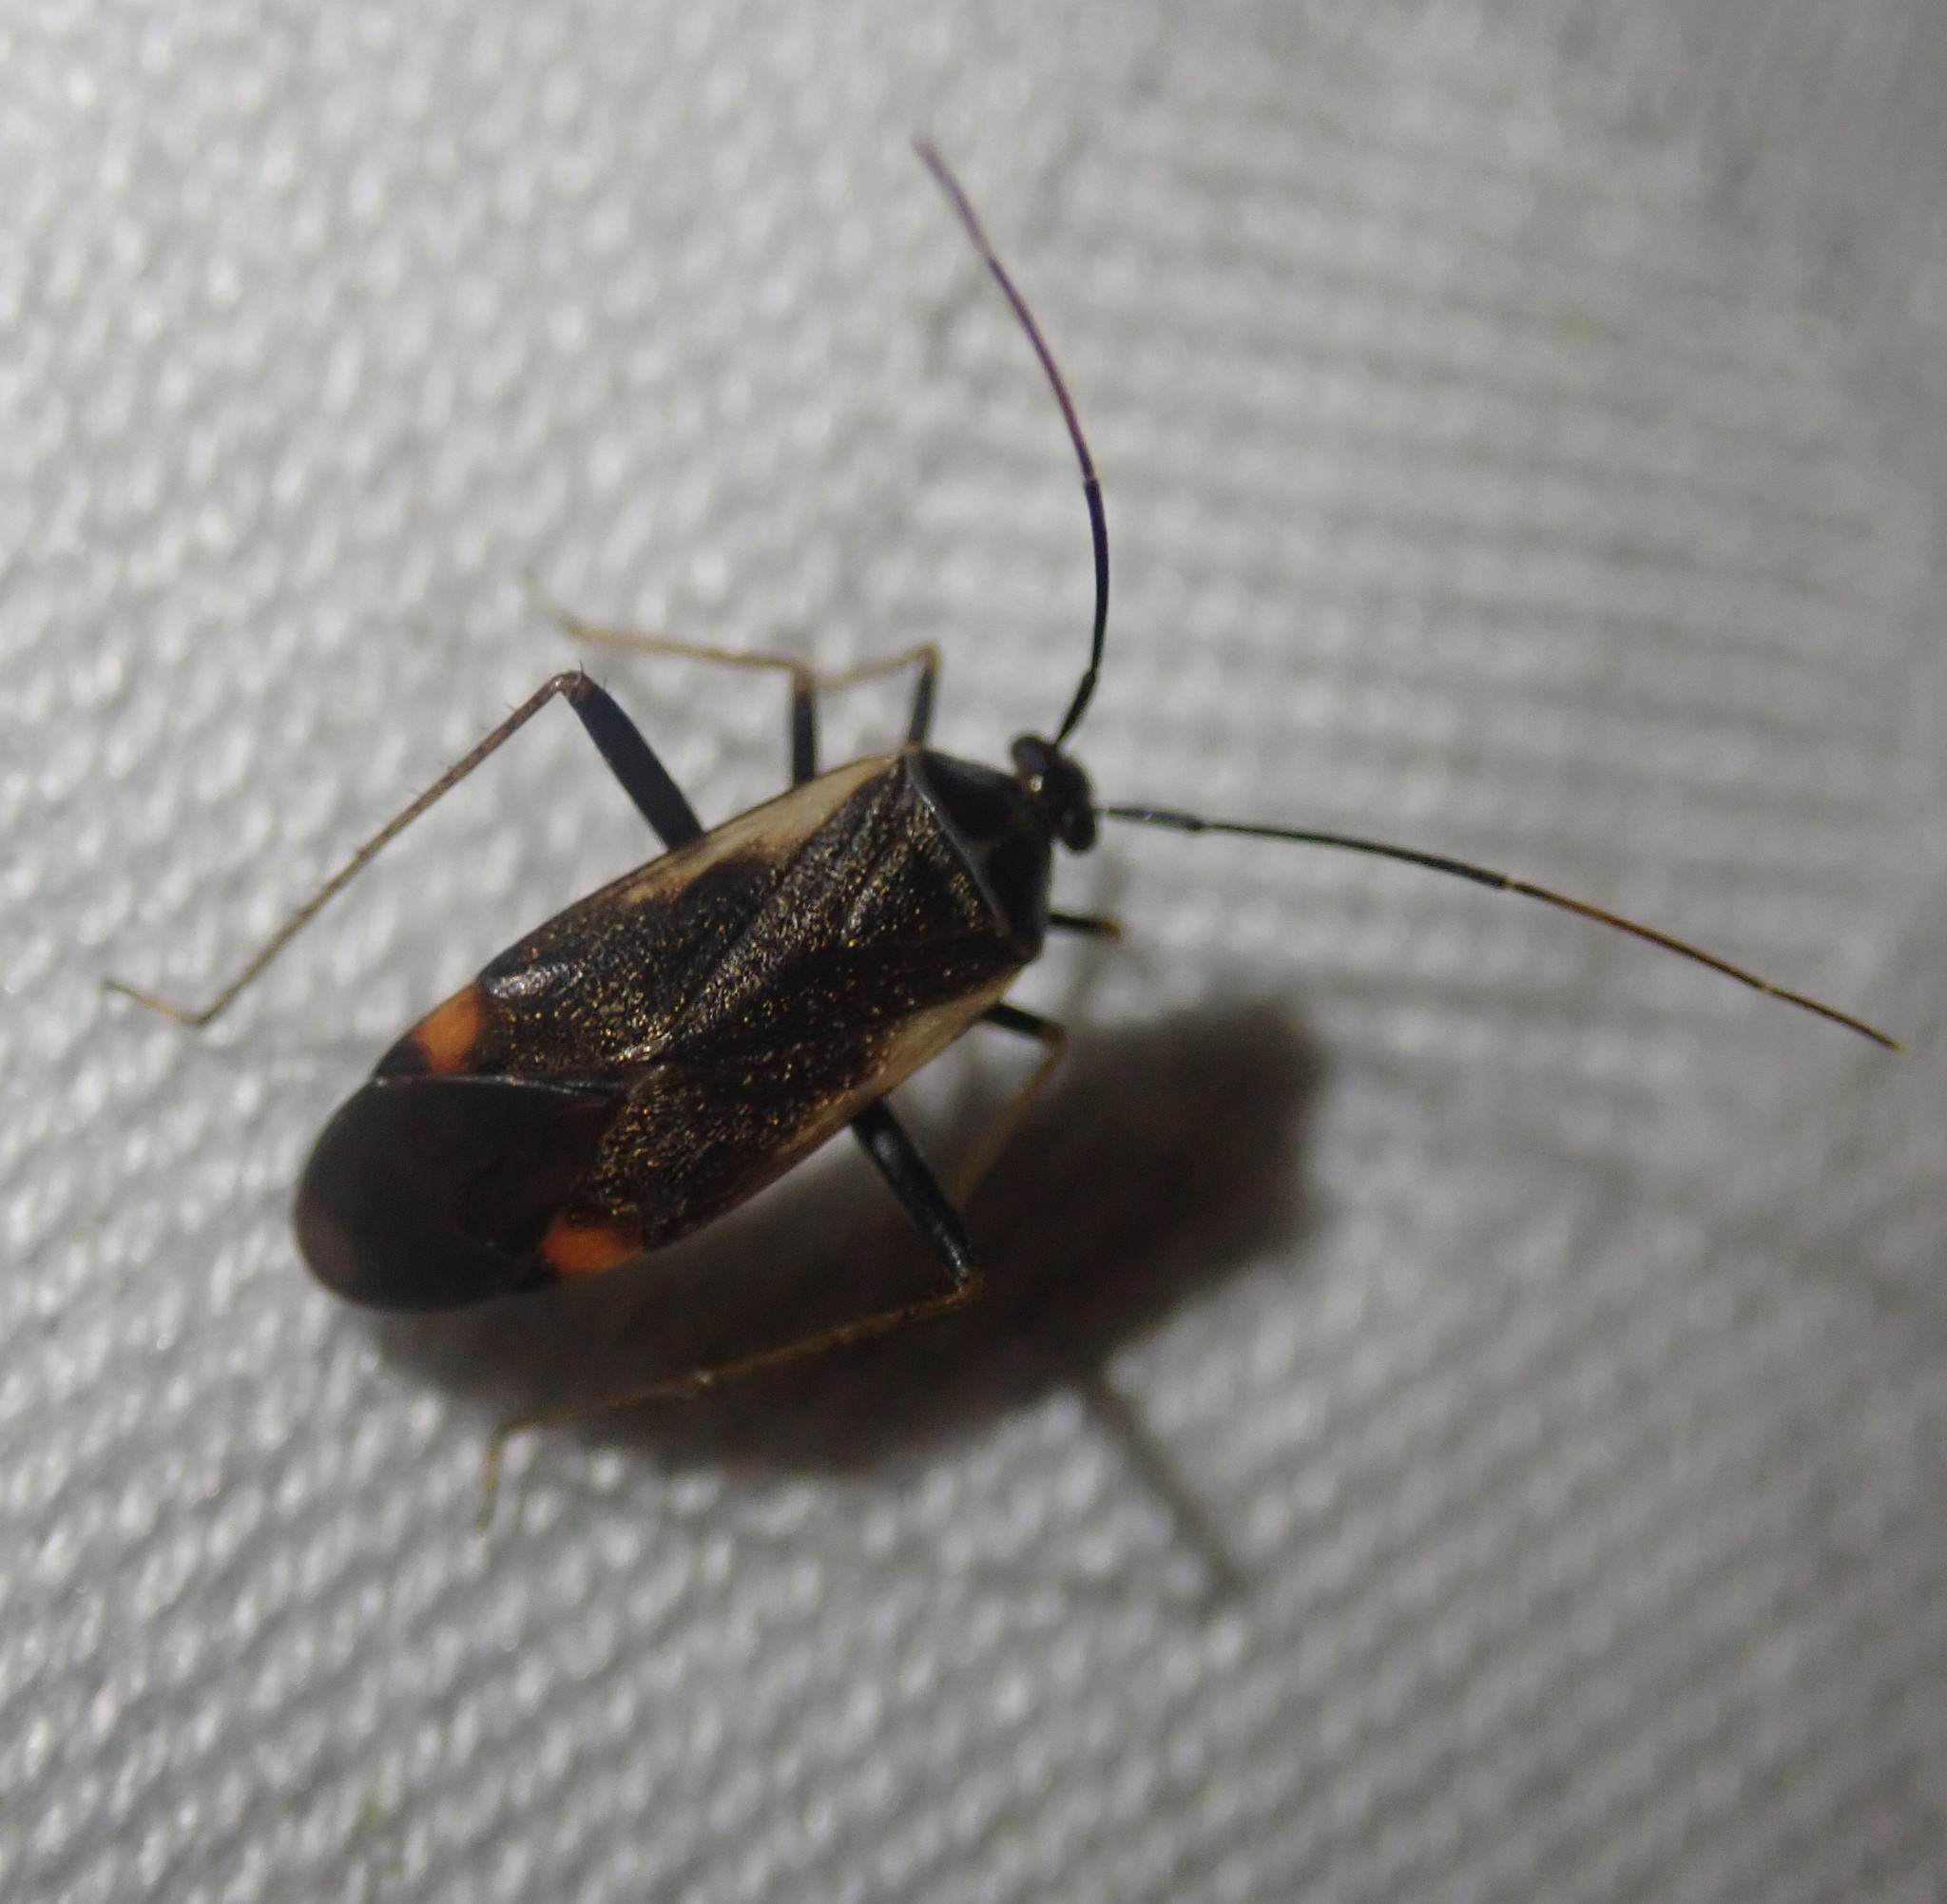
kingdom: Animalia
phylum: Arthropoda
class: Insecta
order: Hemiptera
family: Miridae
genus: Adelphocoris
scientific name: Adelphocoris seticornis
